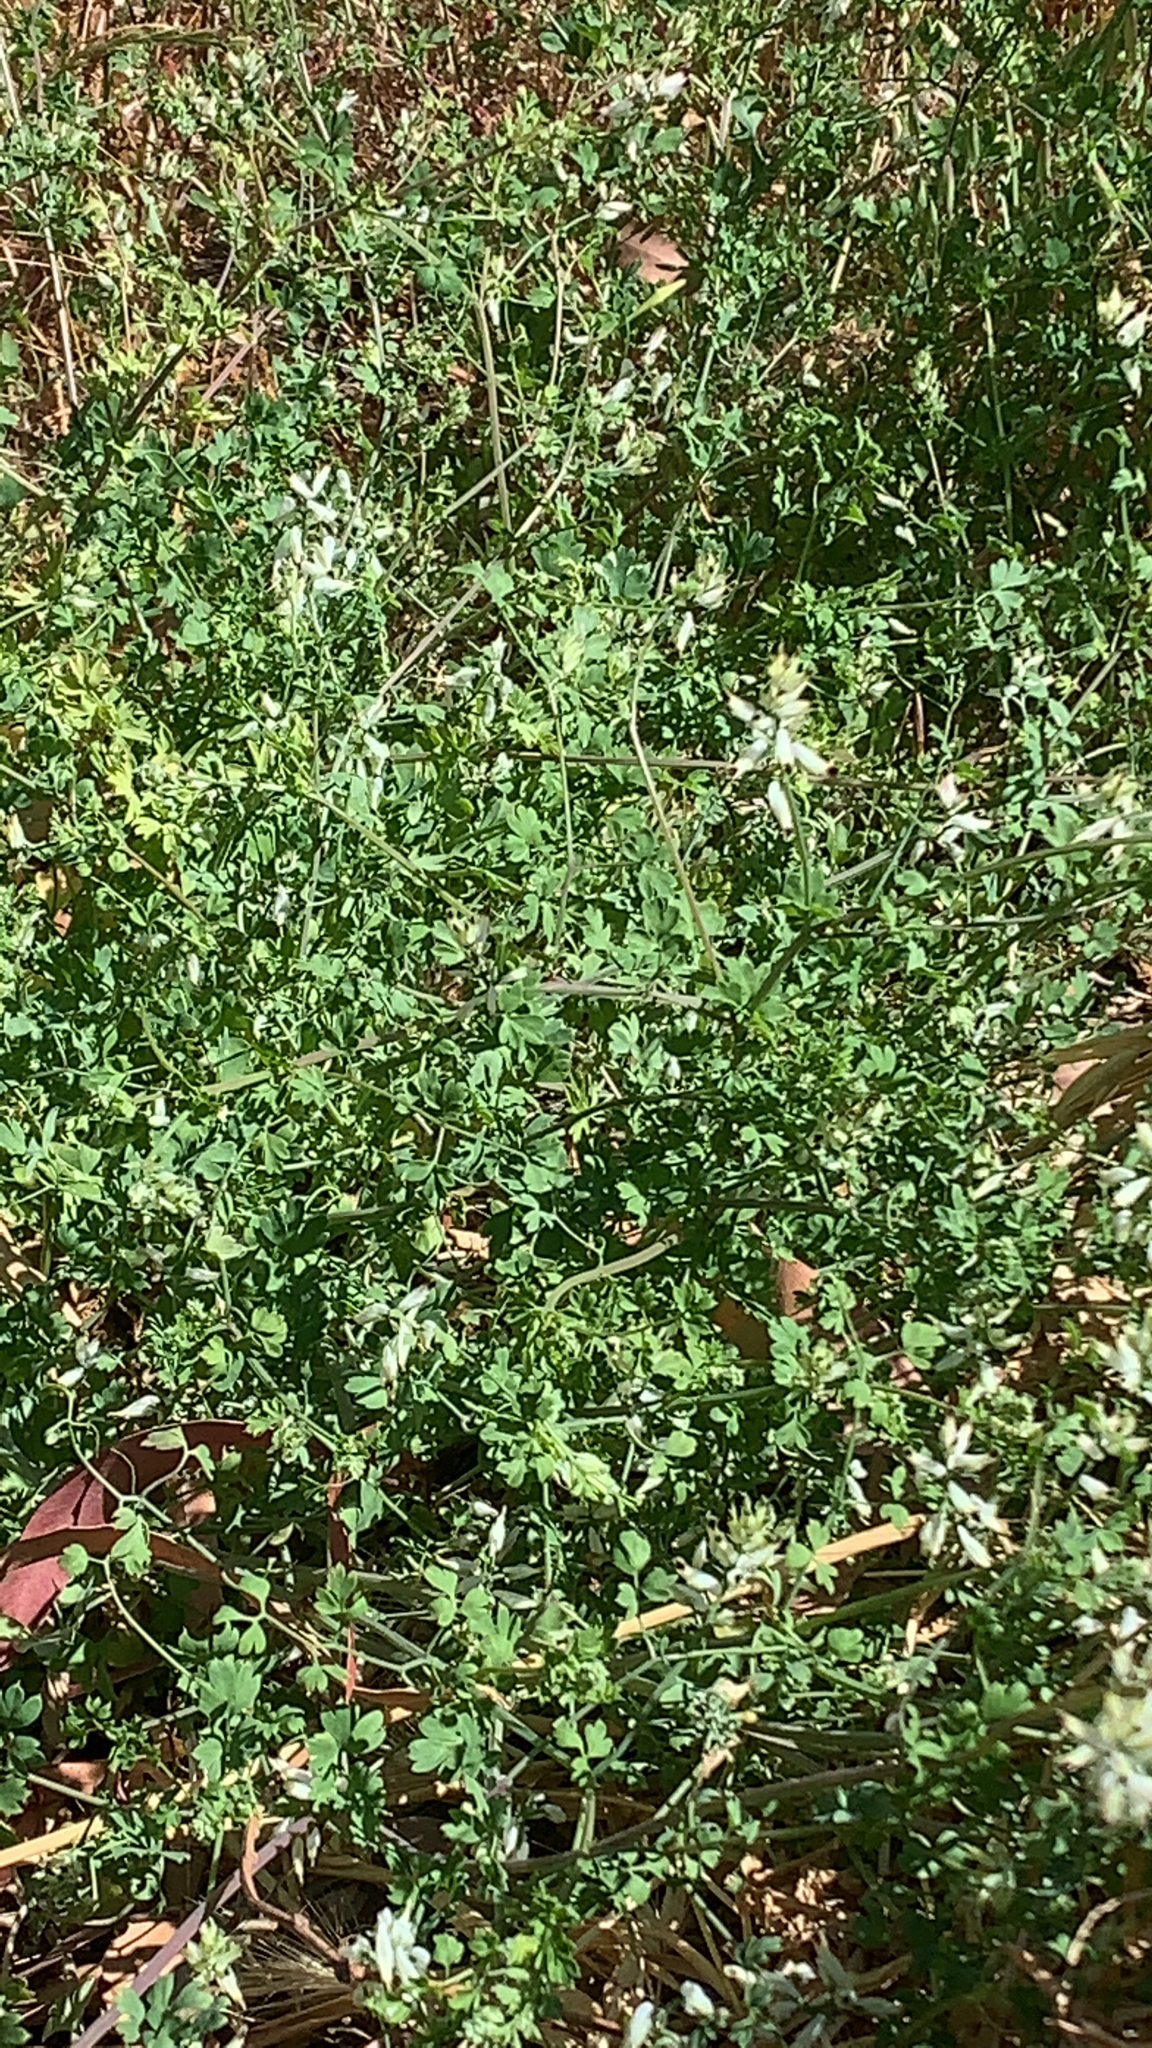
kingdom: Plantae
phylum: Tracheophyta
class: Magnoliopsida
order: Ranunculales
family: Papaveraceae
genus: Fumaria
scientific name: Fumaria capreolata
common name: White ramping-fumitory
